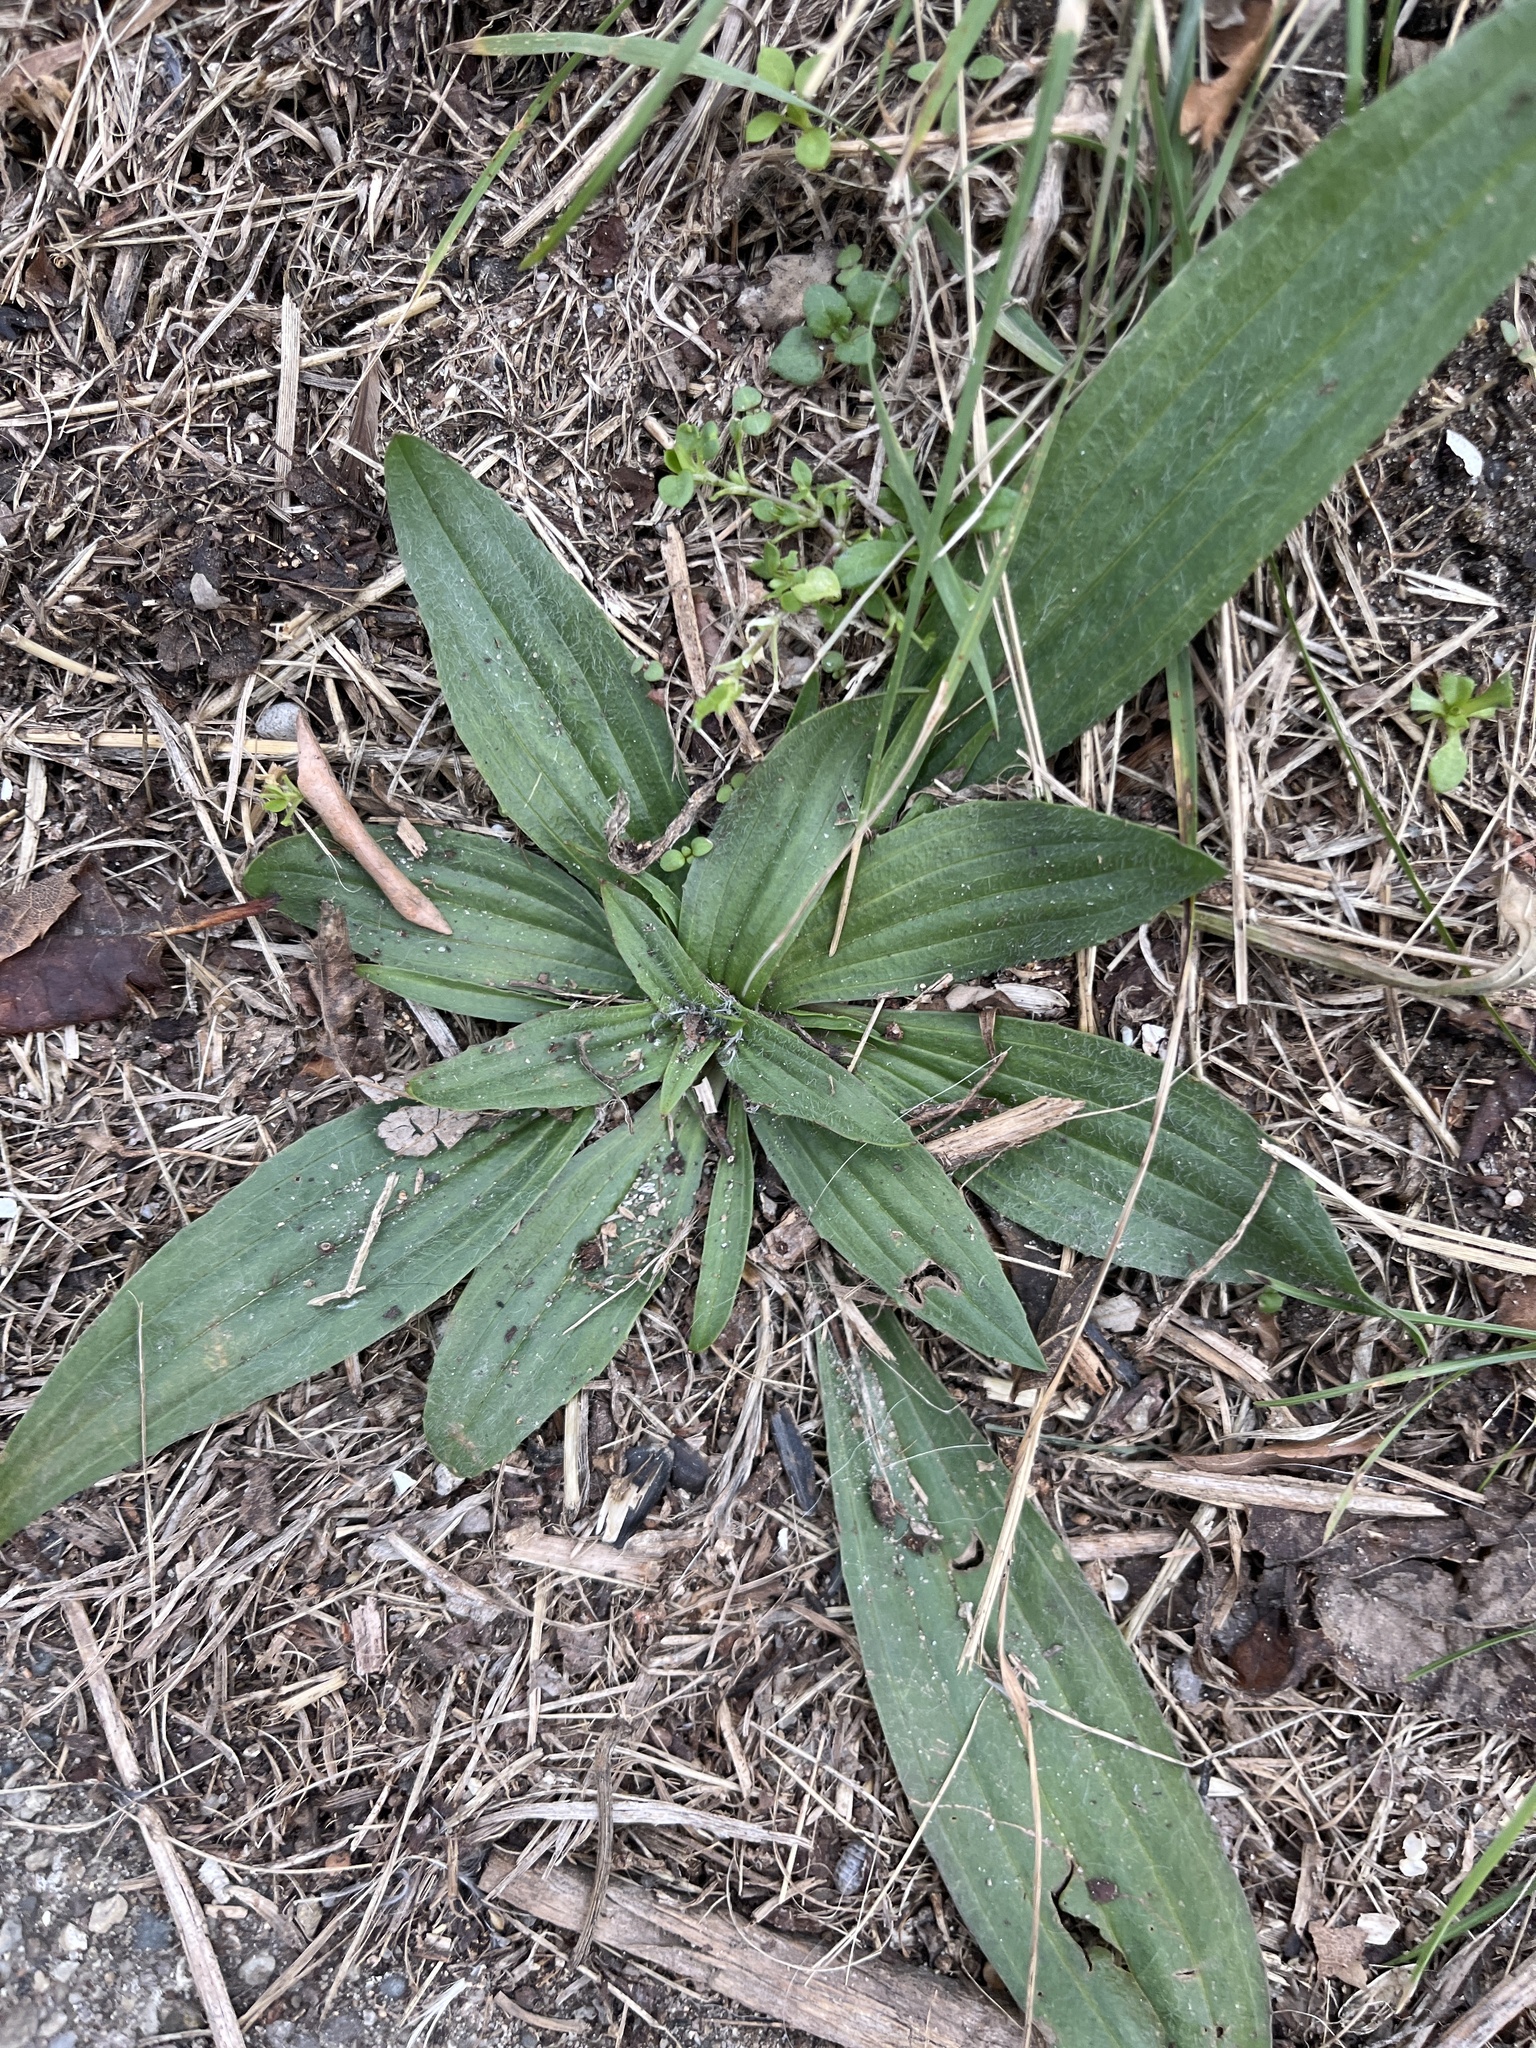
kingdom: Plantae
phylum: Tracheophyta
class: Magnoliopsida
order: Lamiales
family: Plantaginaceae
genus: Plantago
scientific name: Plantago lanceolata
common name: Ribwort plantain
